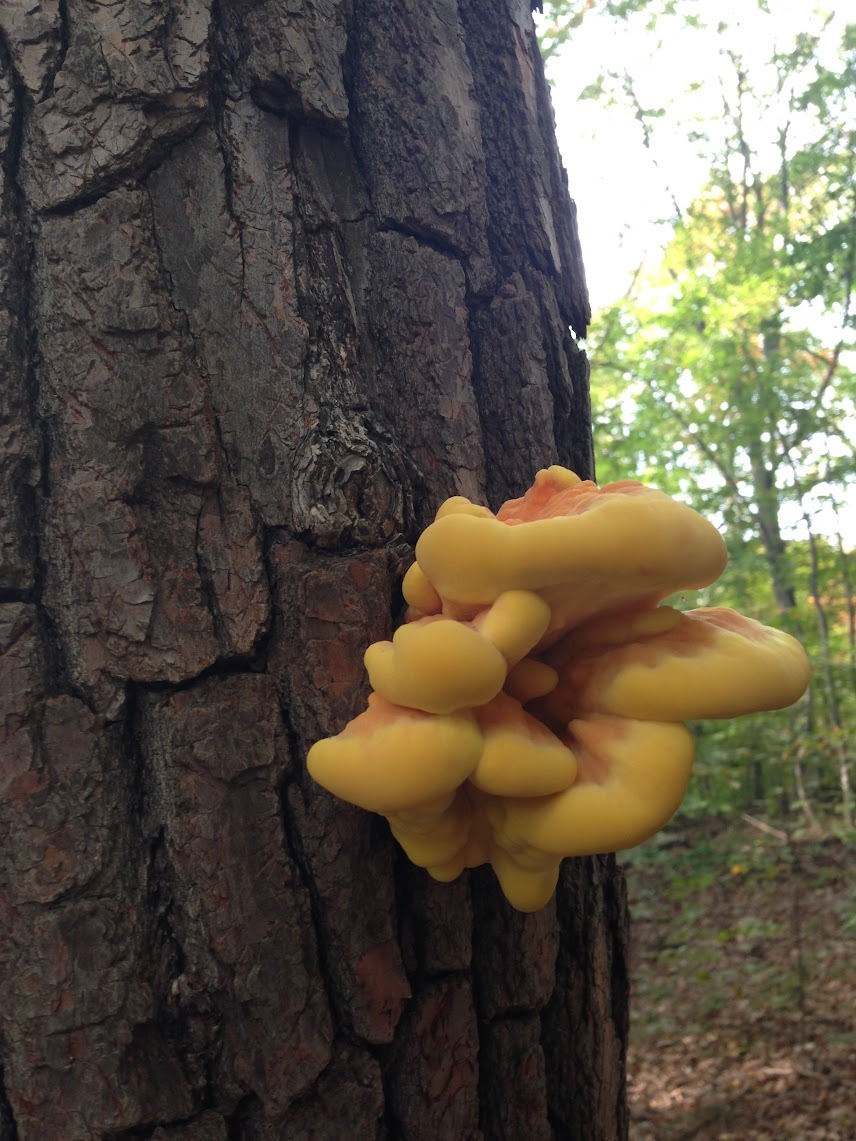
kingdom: Fungi
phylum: Basidiomycota
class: Agaricomycetes
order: Polyporales
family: Laetiporaceae
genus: Laetiporus
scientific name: Laetiporus sulphureus
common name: Chicken of the woods
